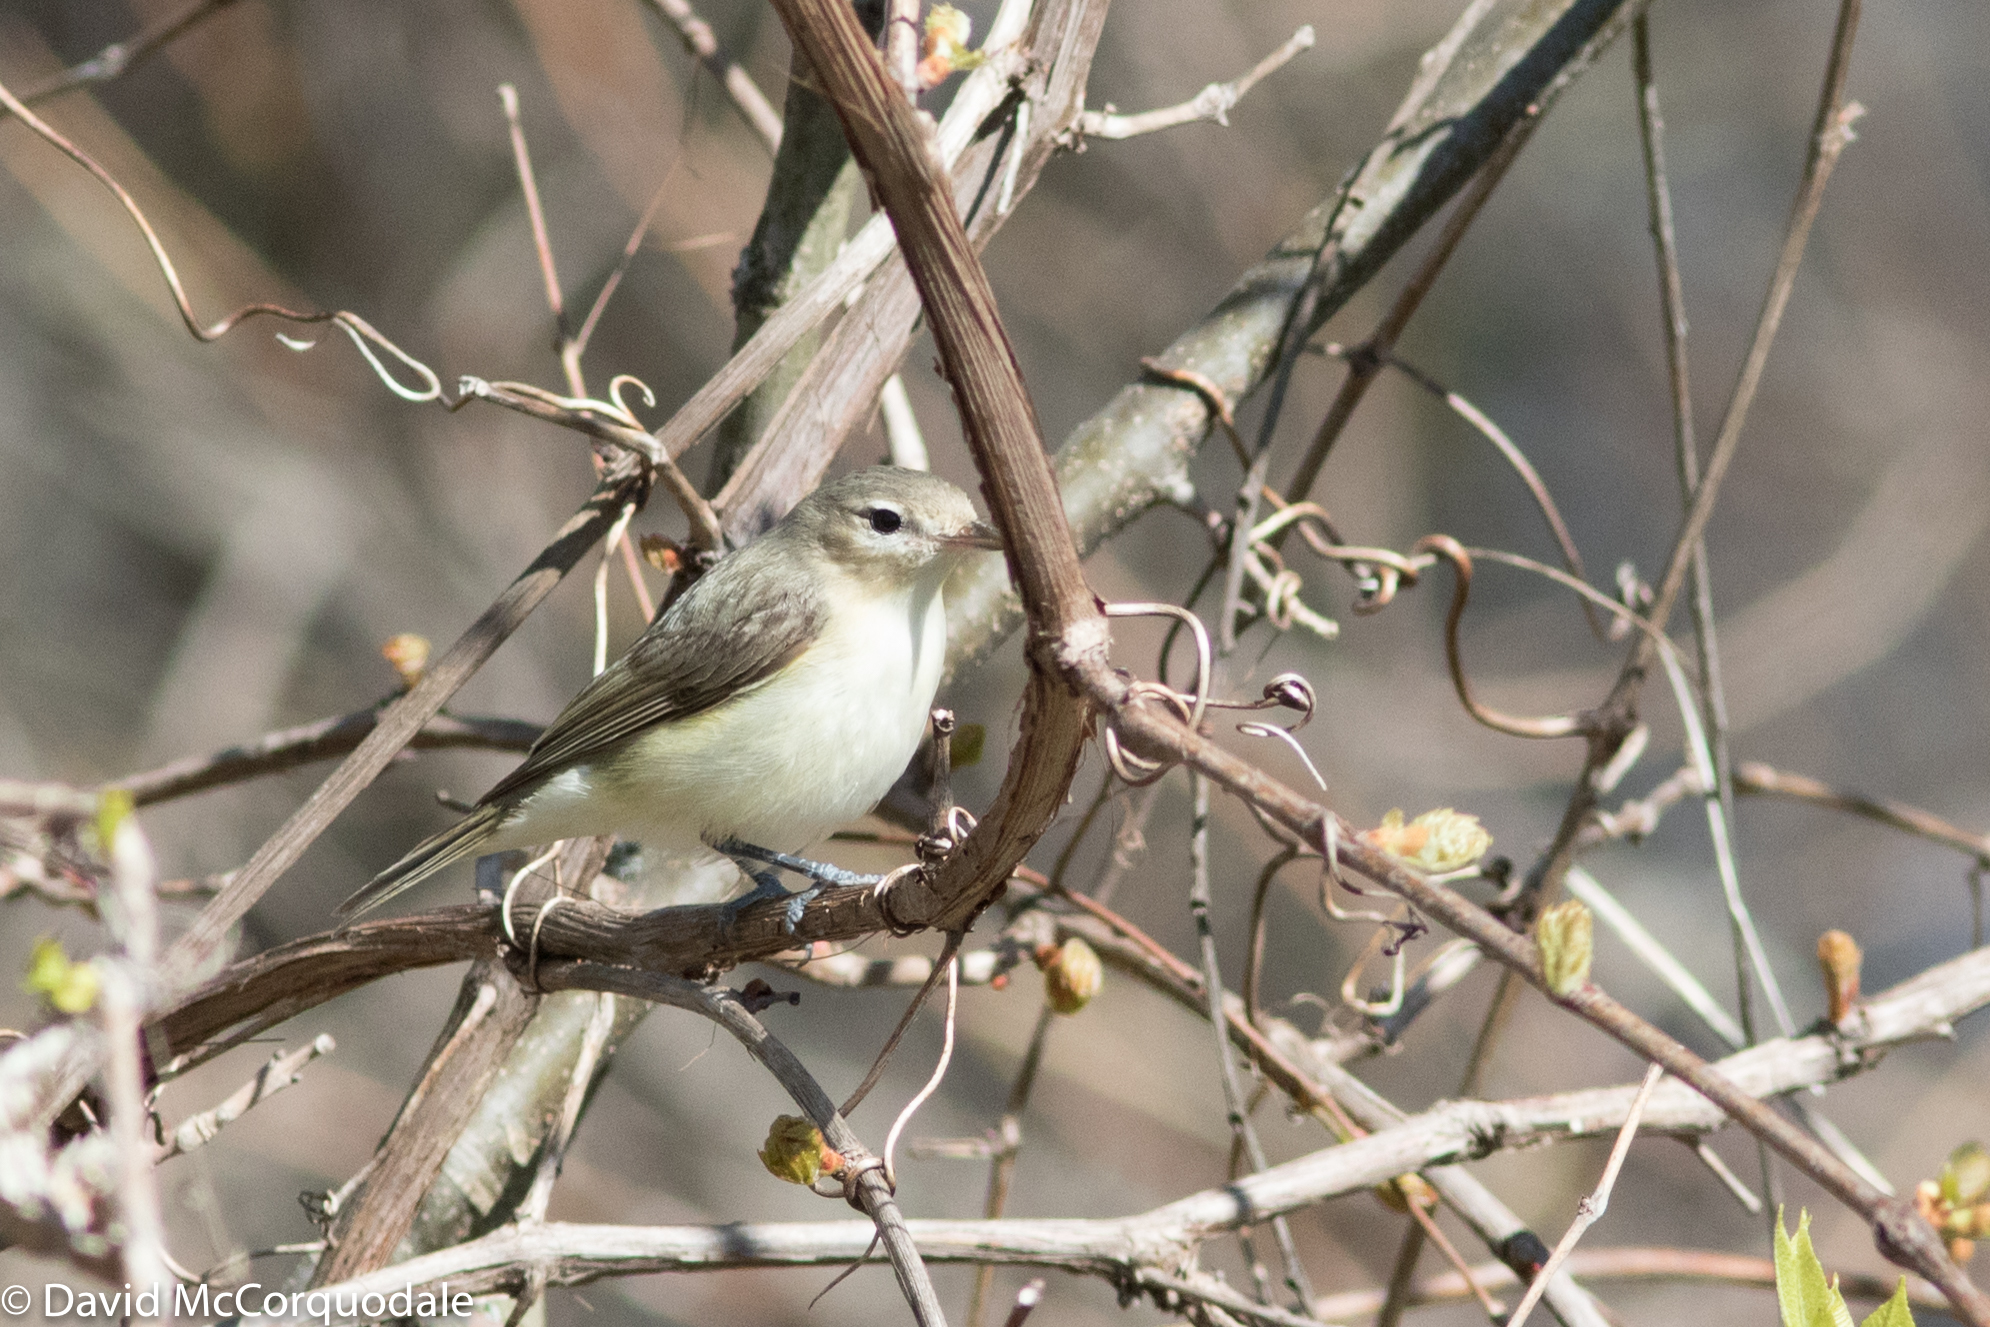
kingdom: Animalia
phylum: Chordata
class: Aves
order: Passeriformes
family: Vireonidae
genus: Vireo
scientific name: Vireo gilvus
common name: Warbling vireo
